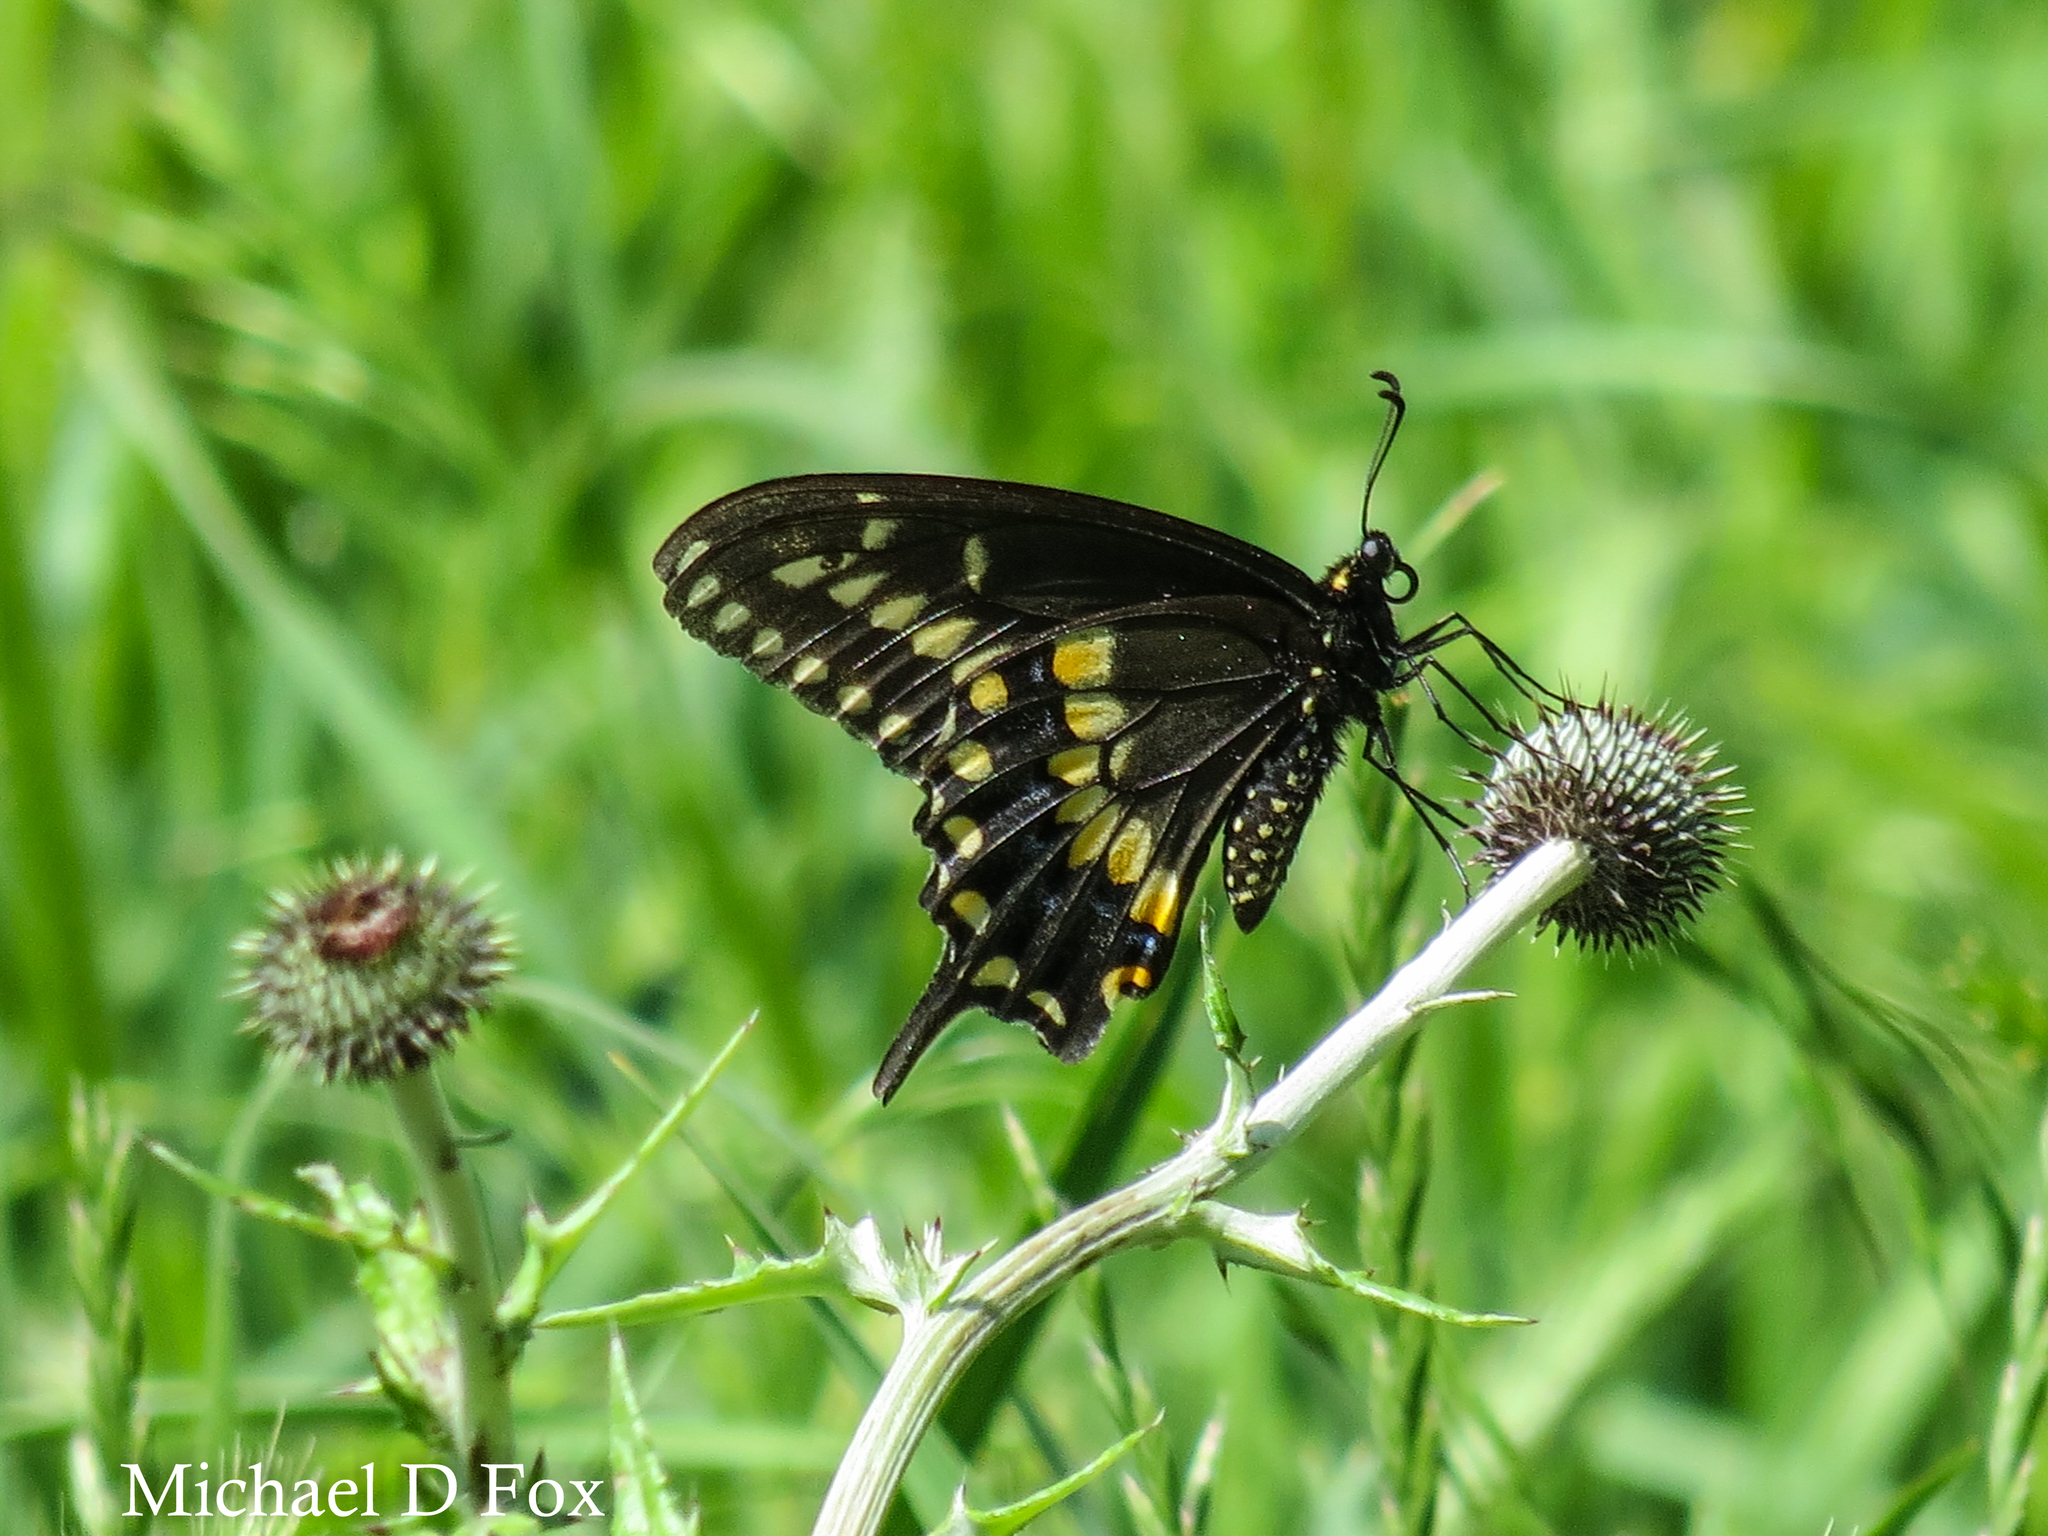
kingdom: Animalia
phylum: Arthropoda
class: Insecta
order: Lepidoptera
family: Papilionidae
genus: Papilio
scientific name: Papilio polyxenes
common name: Black swallowtail
